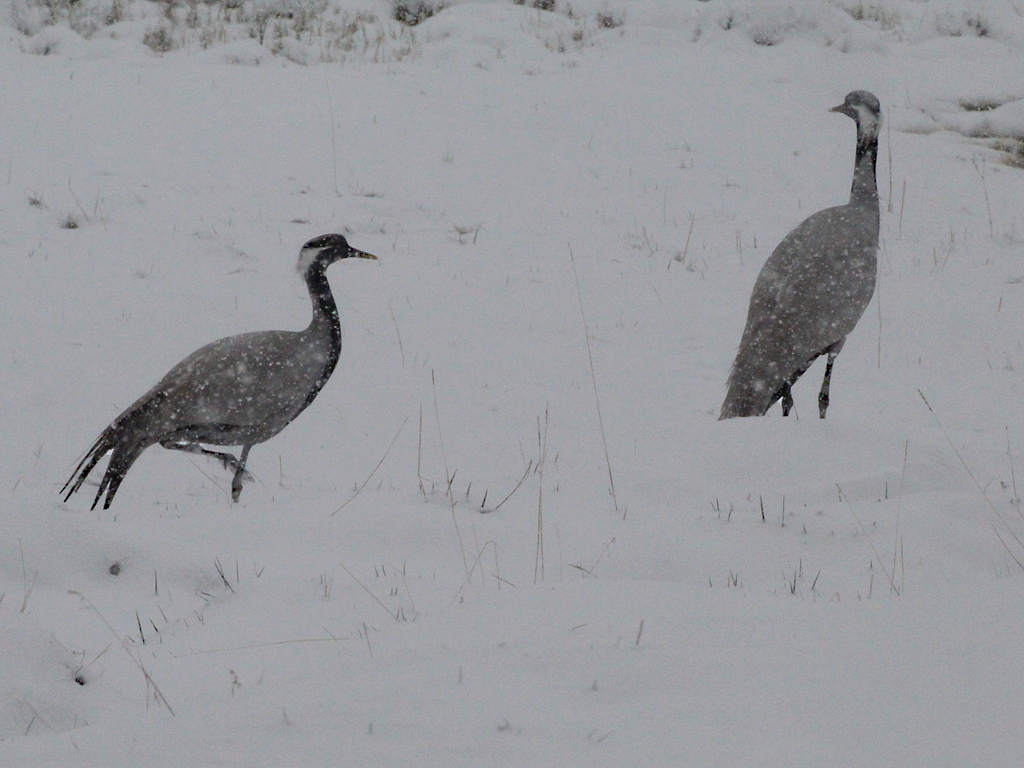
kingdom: Animalia
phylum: Chordata
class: Aves
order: Gruiformes
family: Gruidae
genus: Anthropoides
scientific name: Anthropoides virgo
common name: Demoiselle crane
